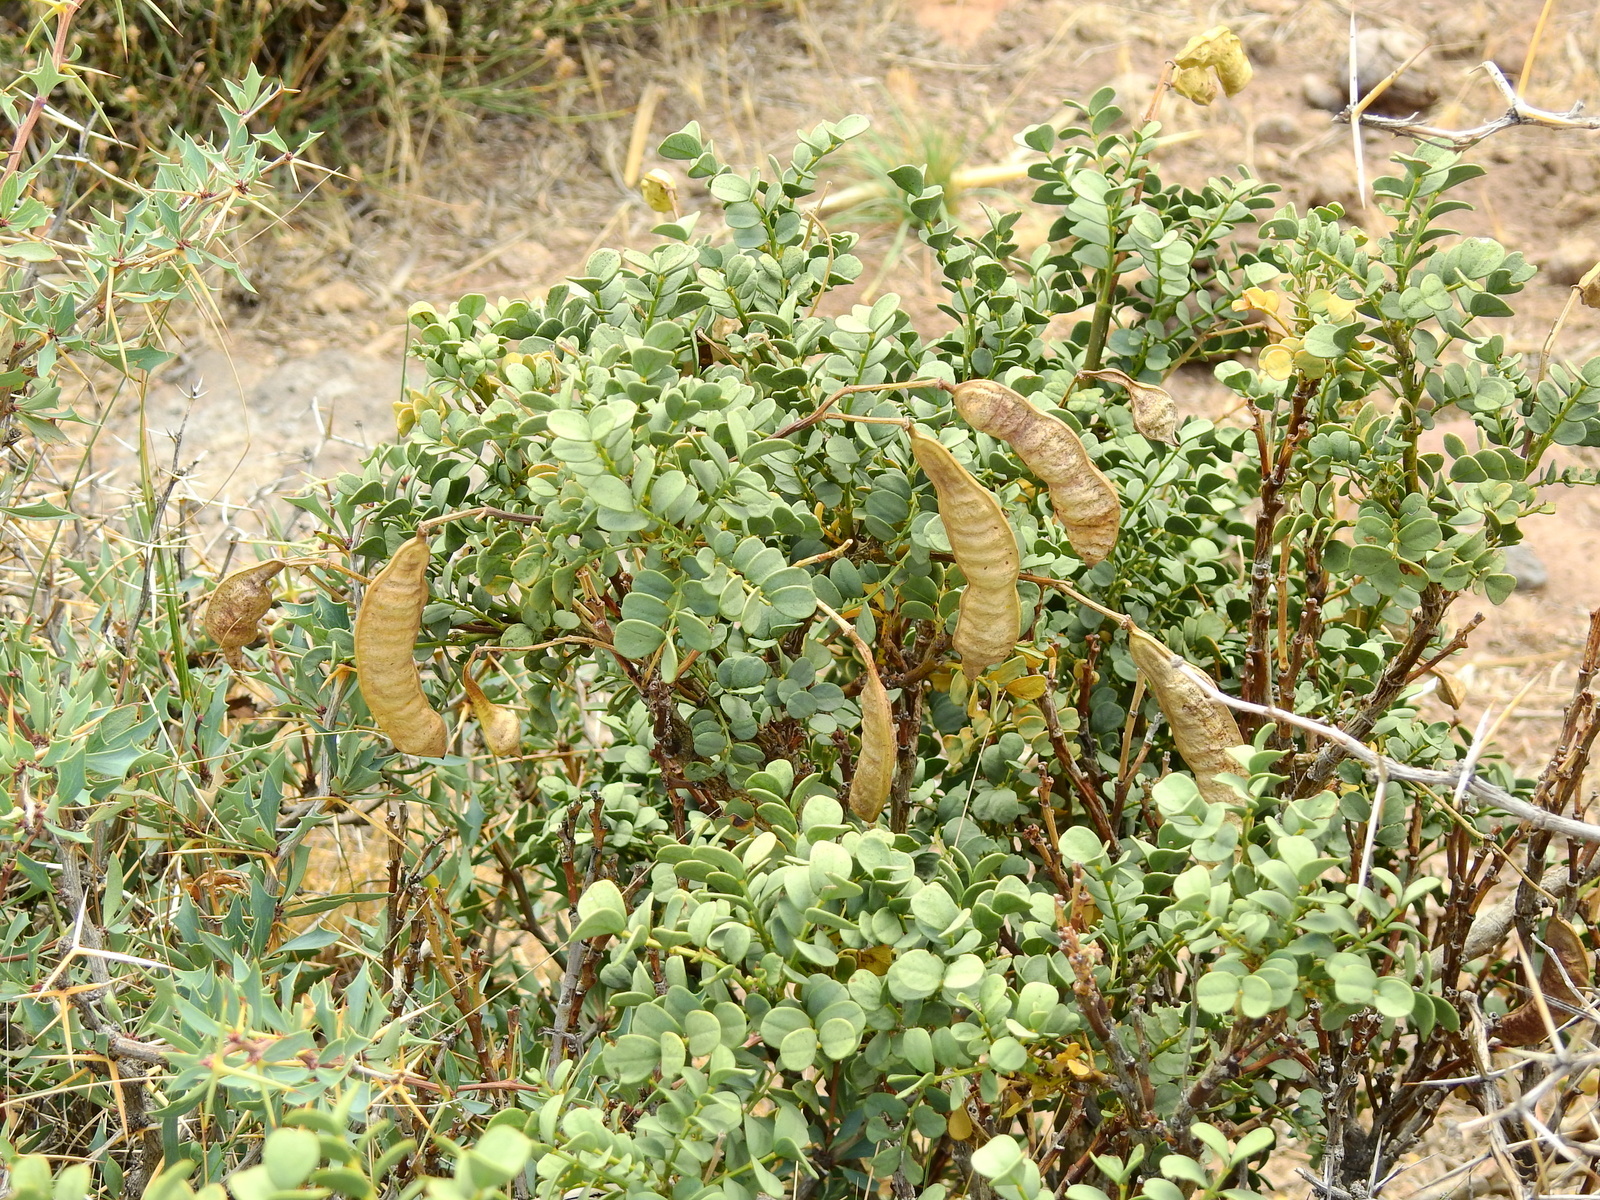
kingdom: Plantae
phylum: Tracheophyta
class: Magnoliopsida
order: Fabales
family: Fabaceae
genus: Senna
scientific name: Senna arnottiana
